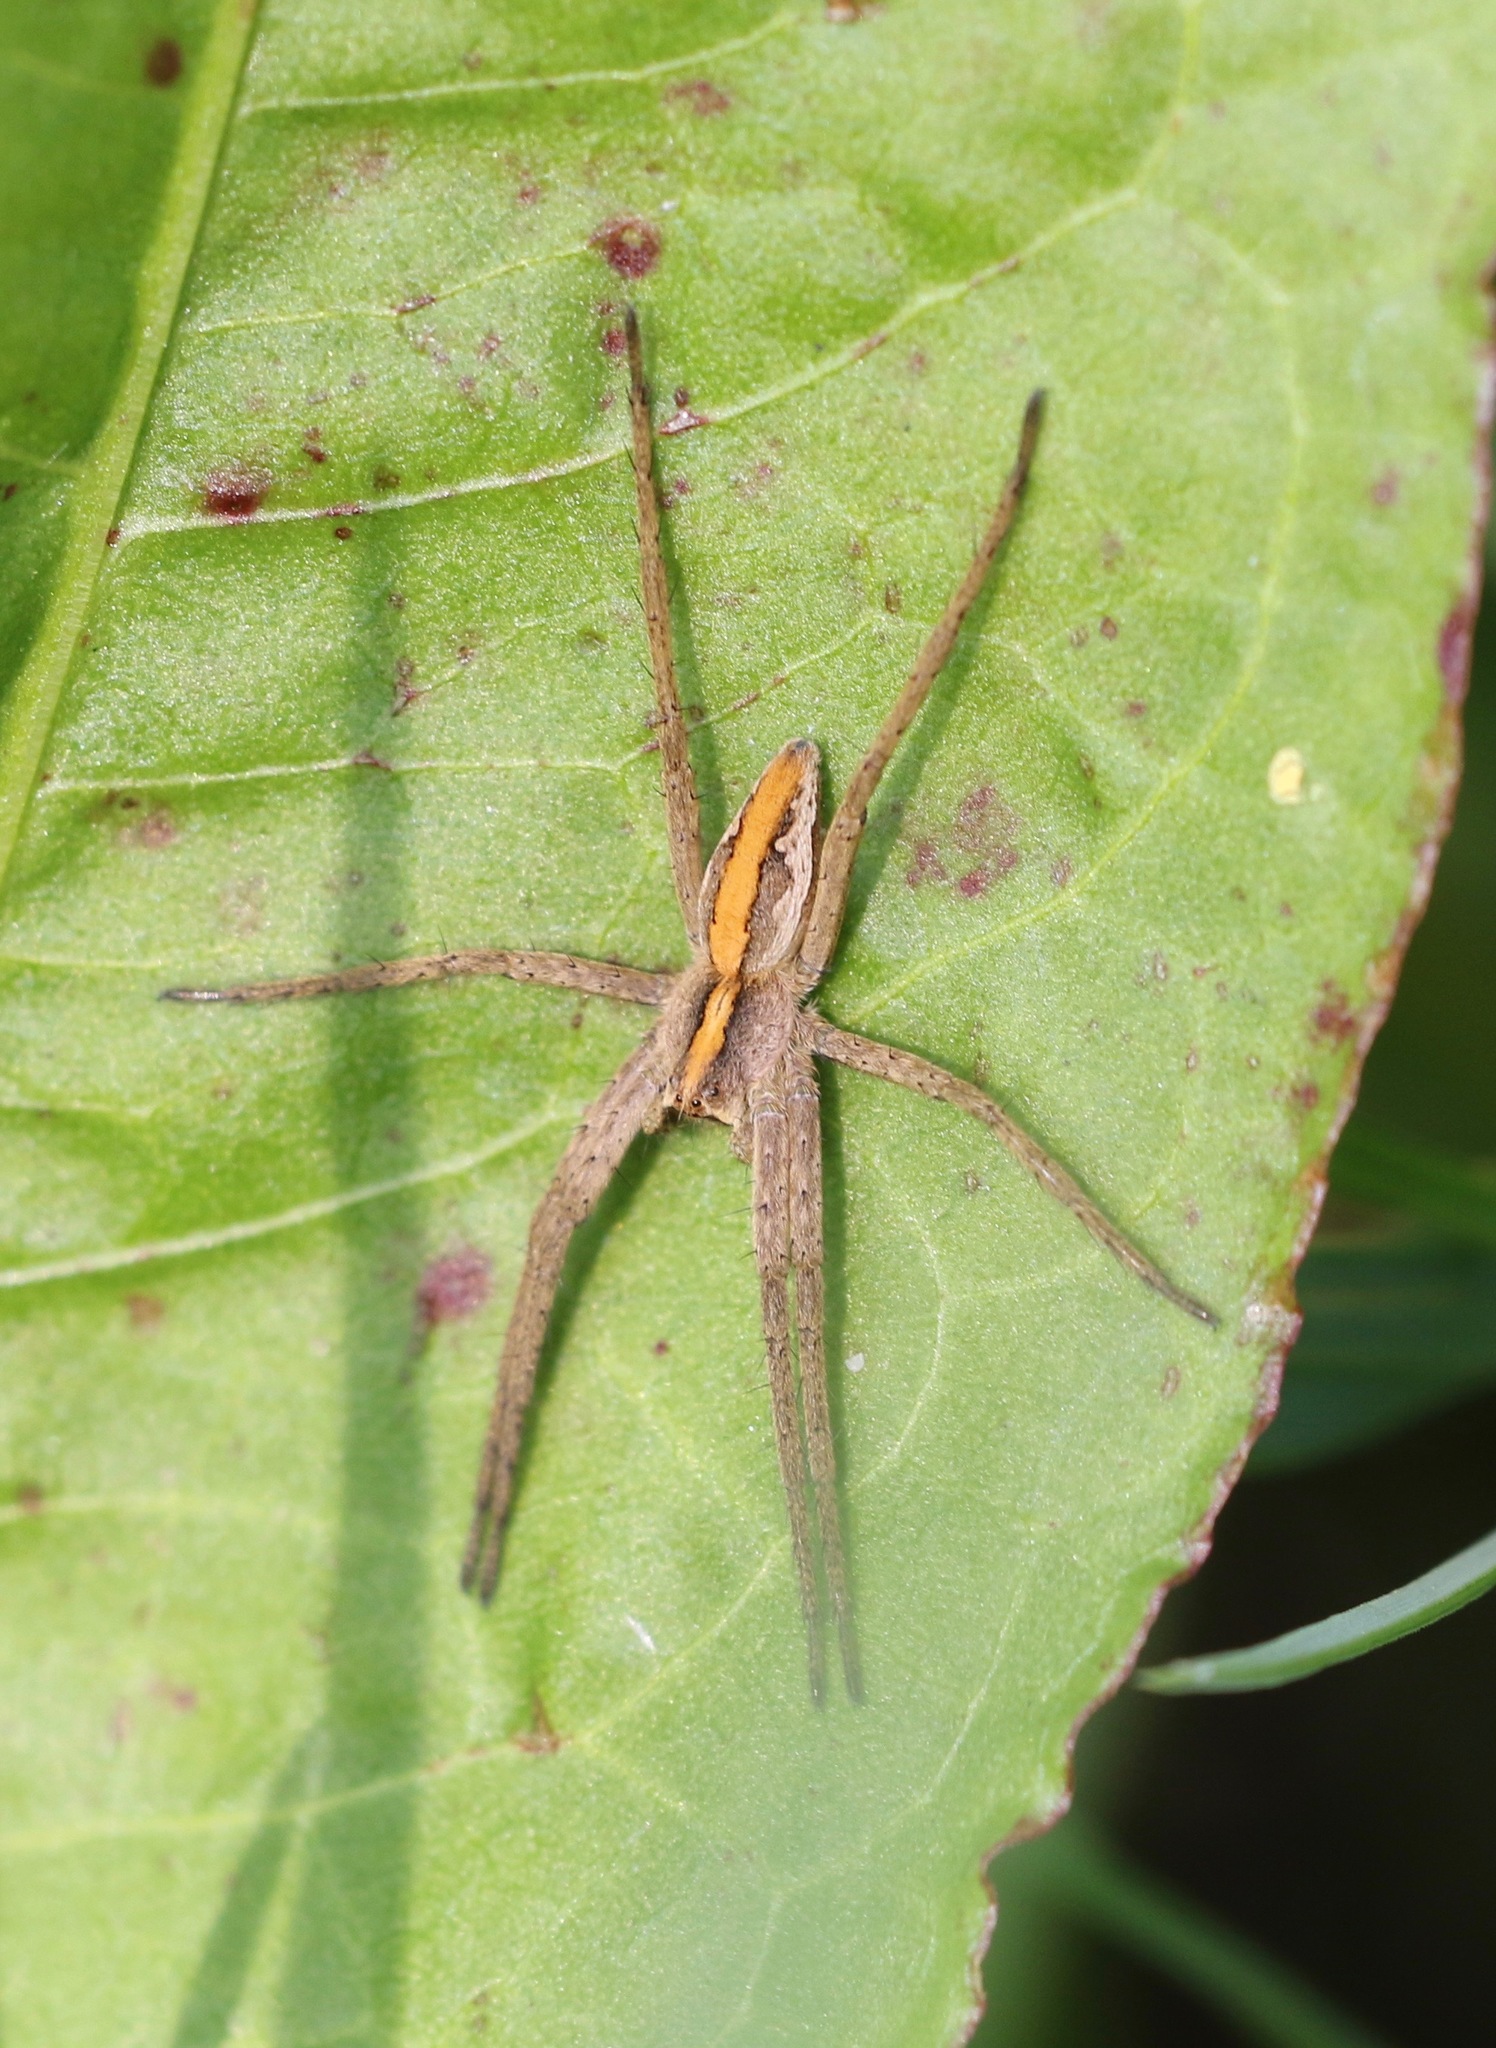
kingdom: Animalia
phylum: Arthropoda
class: Arachnida
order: Araneae
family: Pisauridae
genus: Pisaura
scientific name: Pisaura mirabilis
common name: Tent spider
